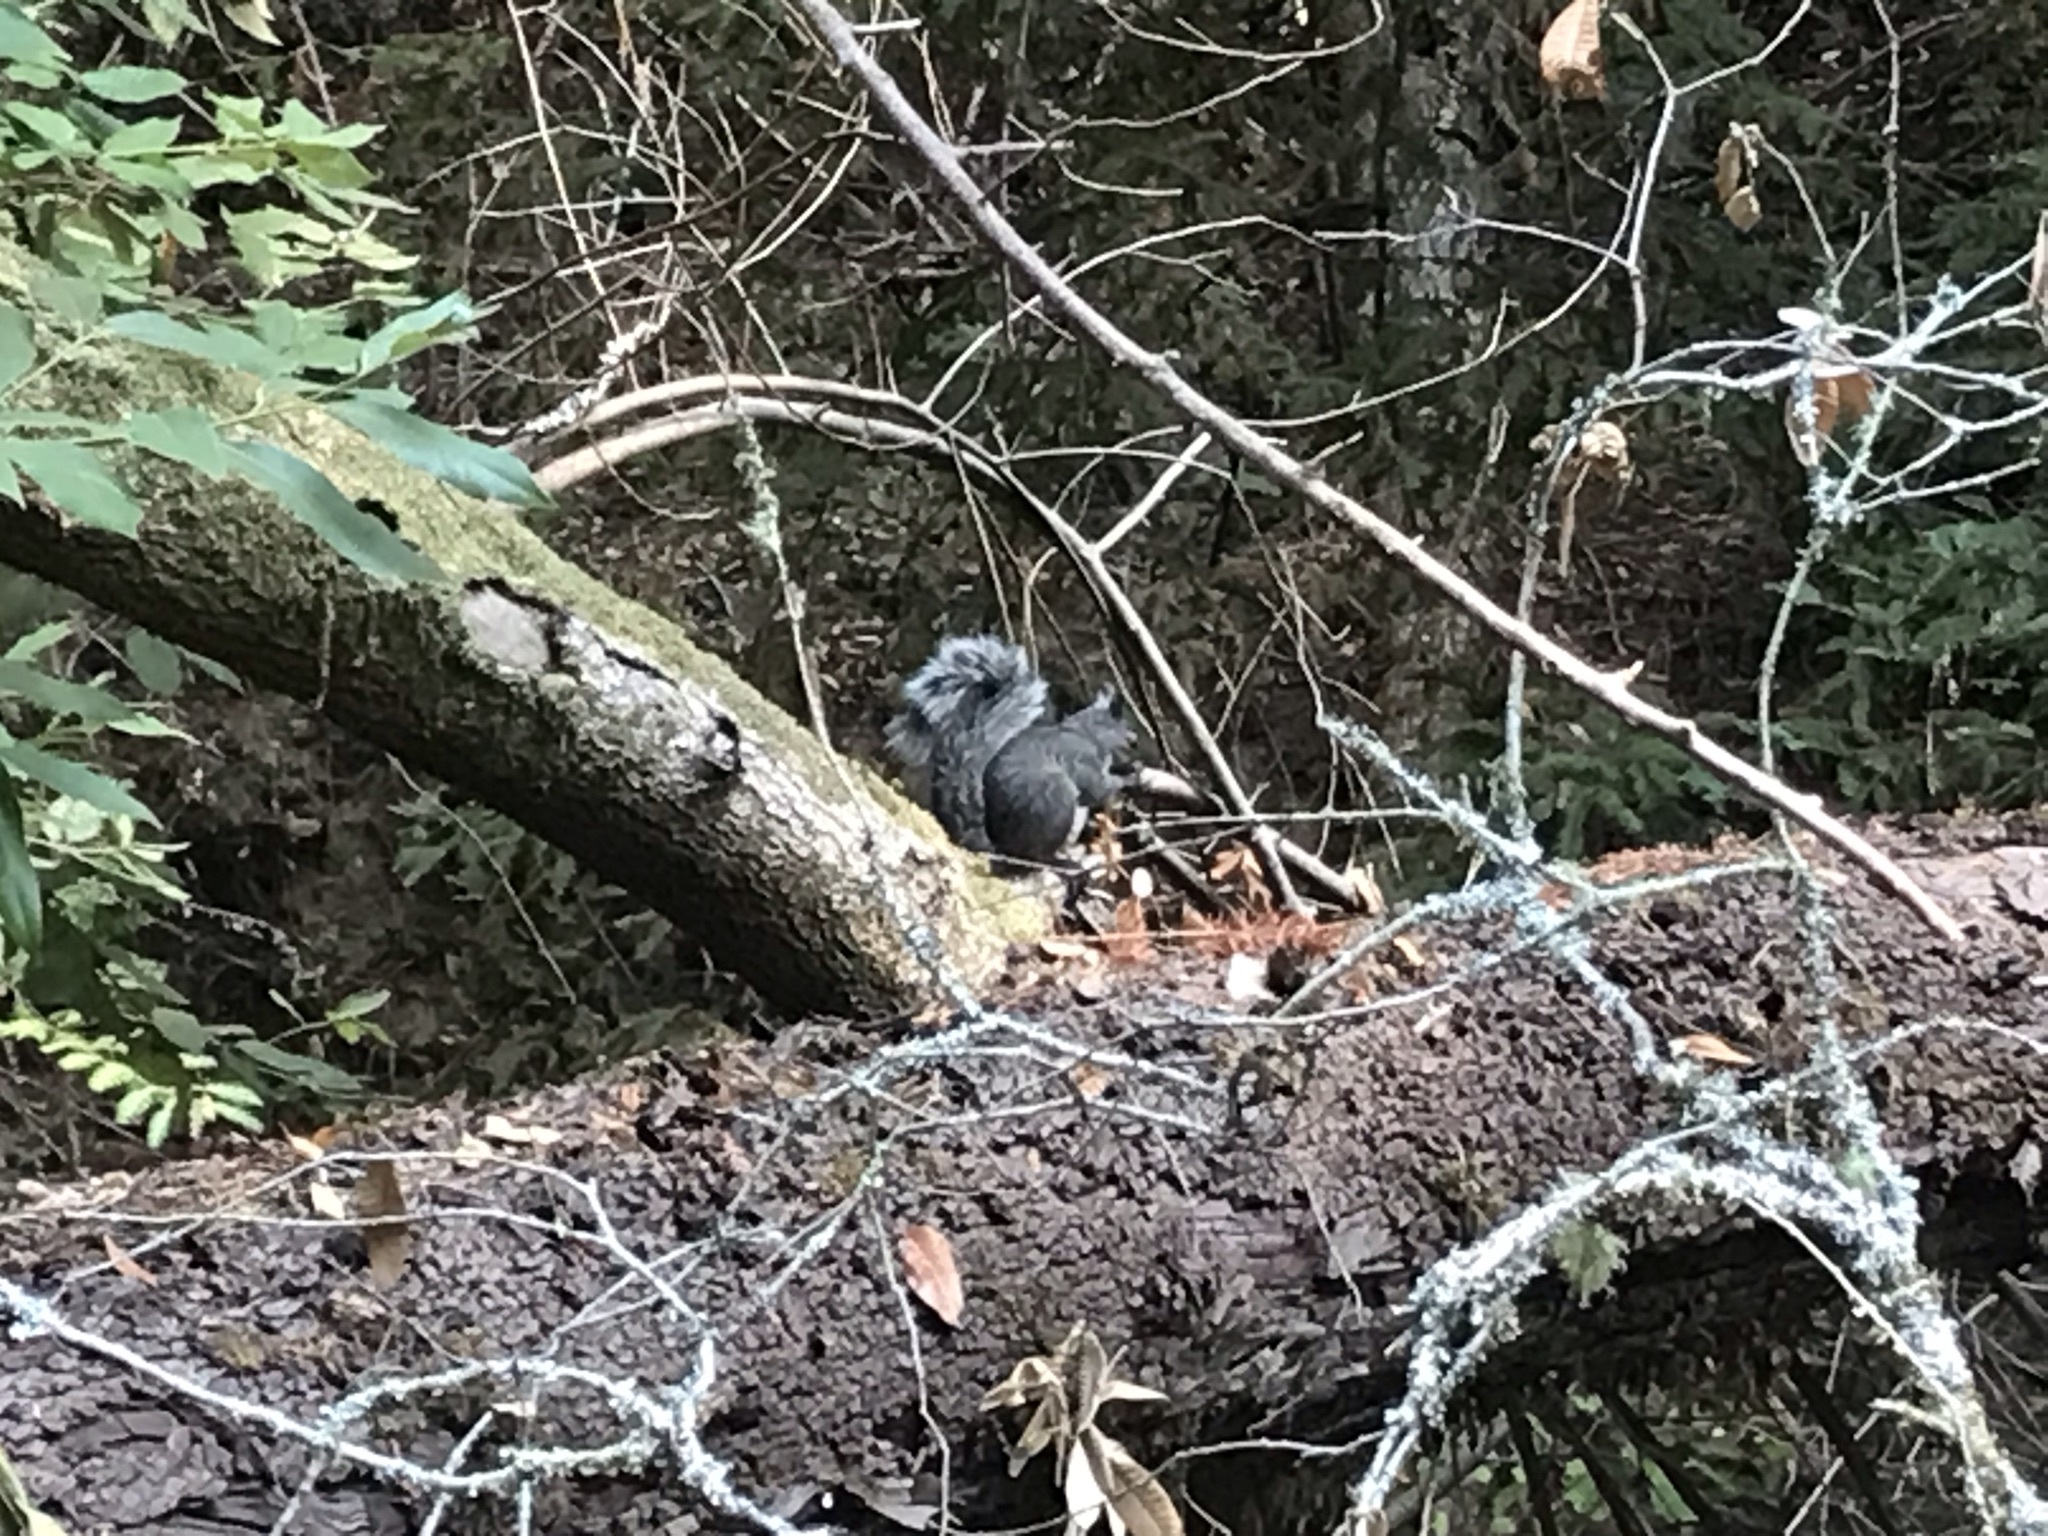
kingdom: Animalia
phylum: Chordata
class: Mammalia
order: Rodentia
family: Sciuridae
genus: Sciurus
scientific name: Sciurus griseus
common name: Western gray squirrel
